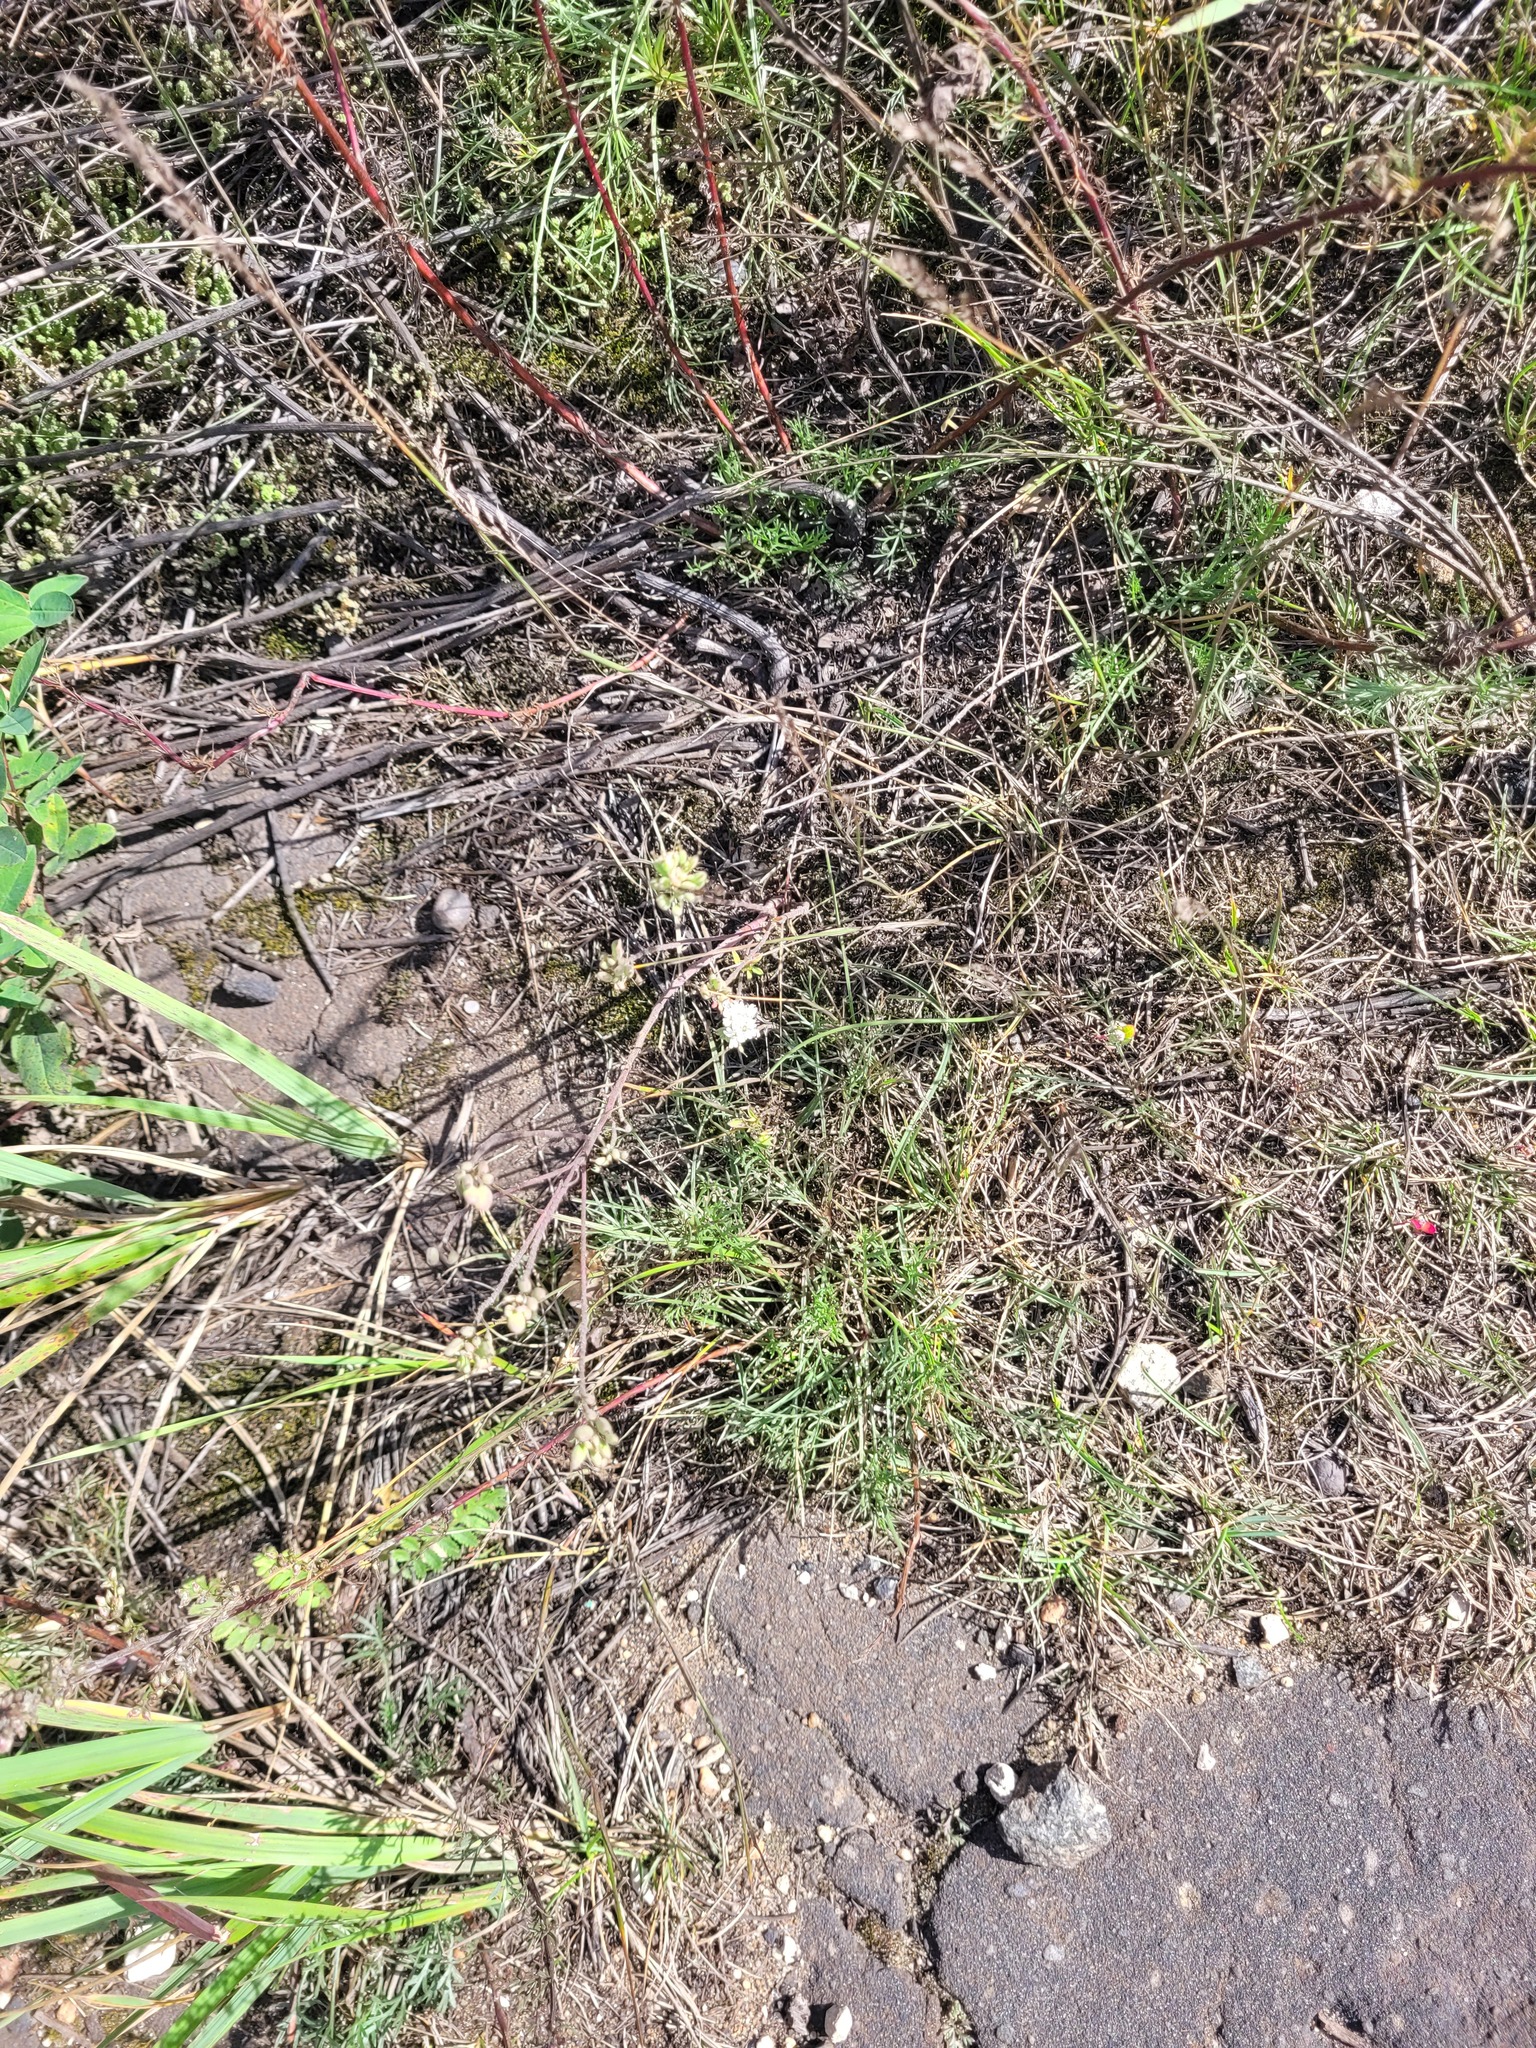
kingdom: Plantae
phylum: Tracheophyta
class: Magnoliopsida
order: Brassicales
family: Brassicaceae
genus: Berteroa
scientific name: Berteroa incana
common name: Hoary alison
